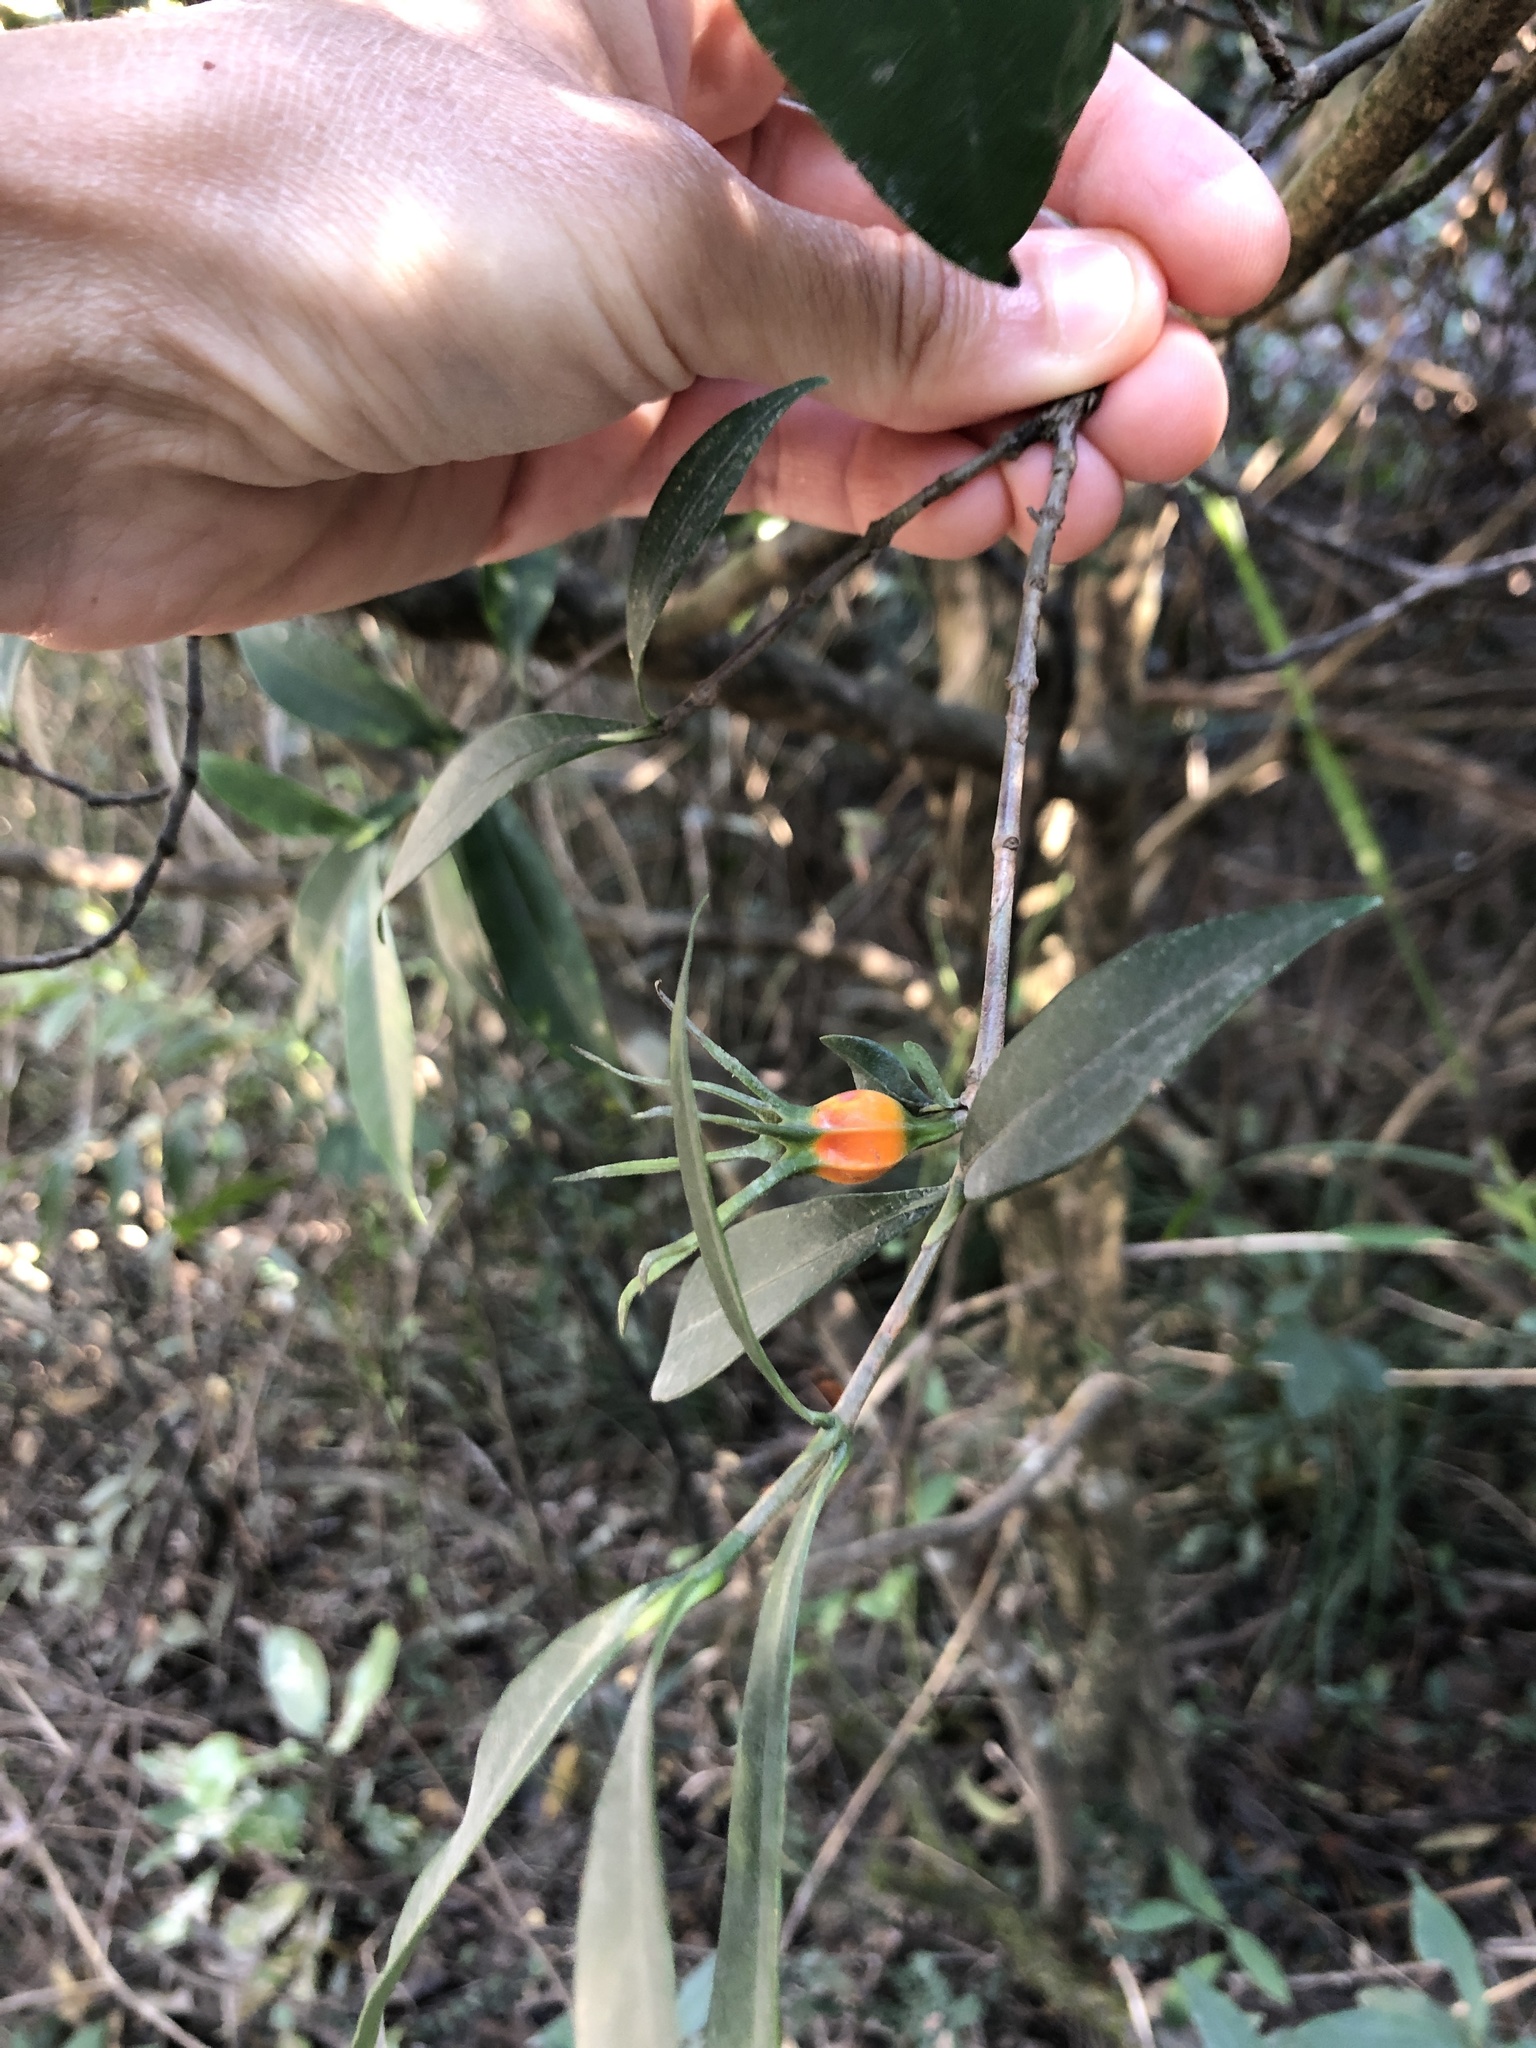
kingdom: Plantae
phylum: Tracheophyta
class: Magnoliopsida
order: Gentianales
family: Rubiaceae
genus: Gardenia
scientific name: Gardenia jasminoides
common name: Cape-jasmine
